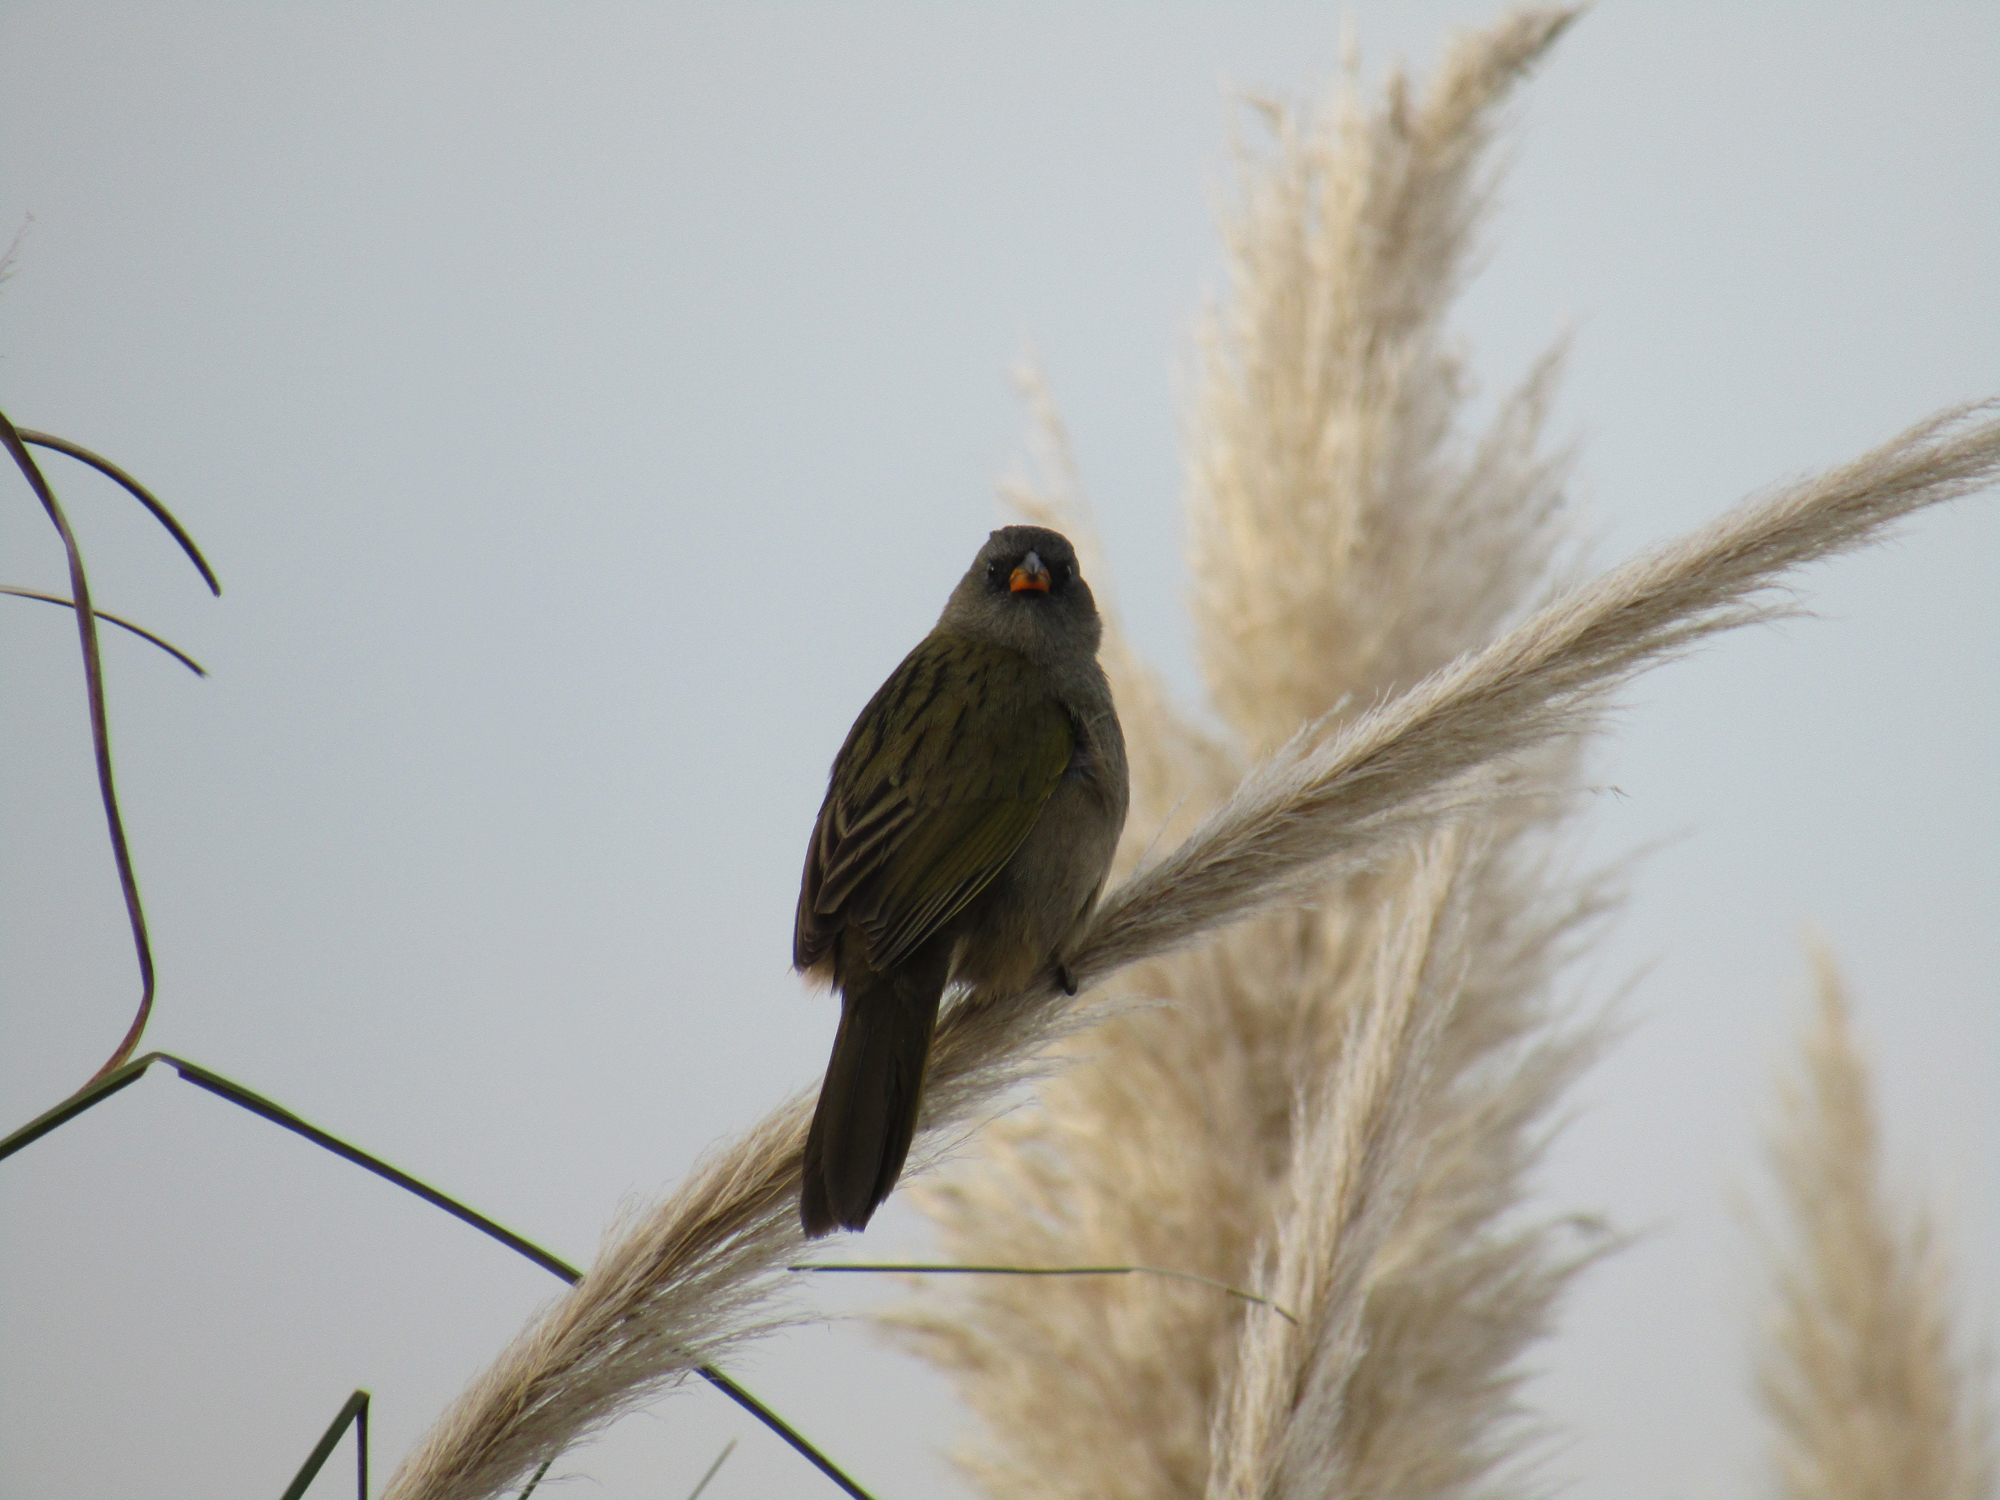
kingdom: Animalia
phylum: Chordata
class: Aves
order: Passeriformes
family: Thraupidae
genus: Embernagra
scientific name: Embernagra platensis
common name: Pampa finch
